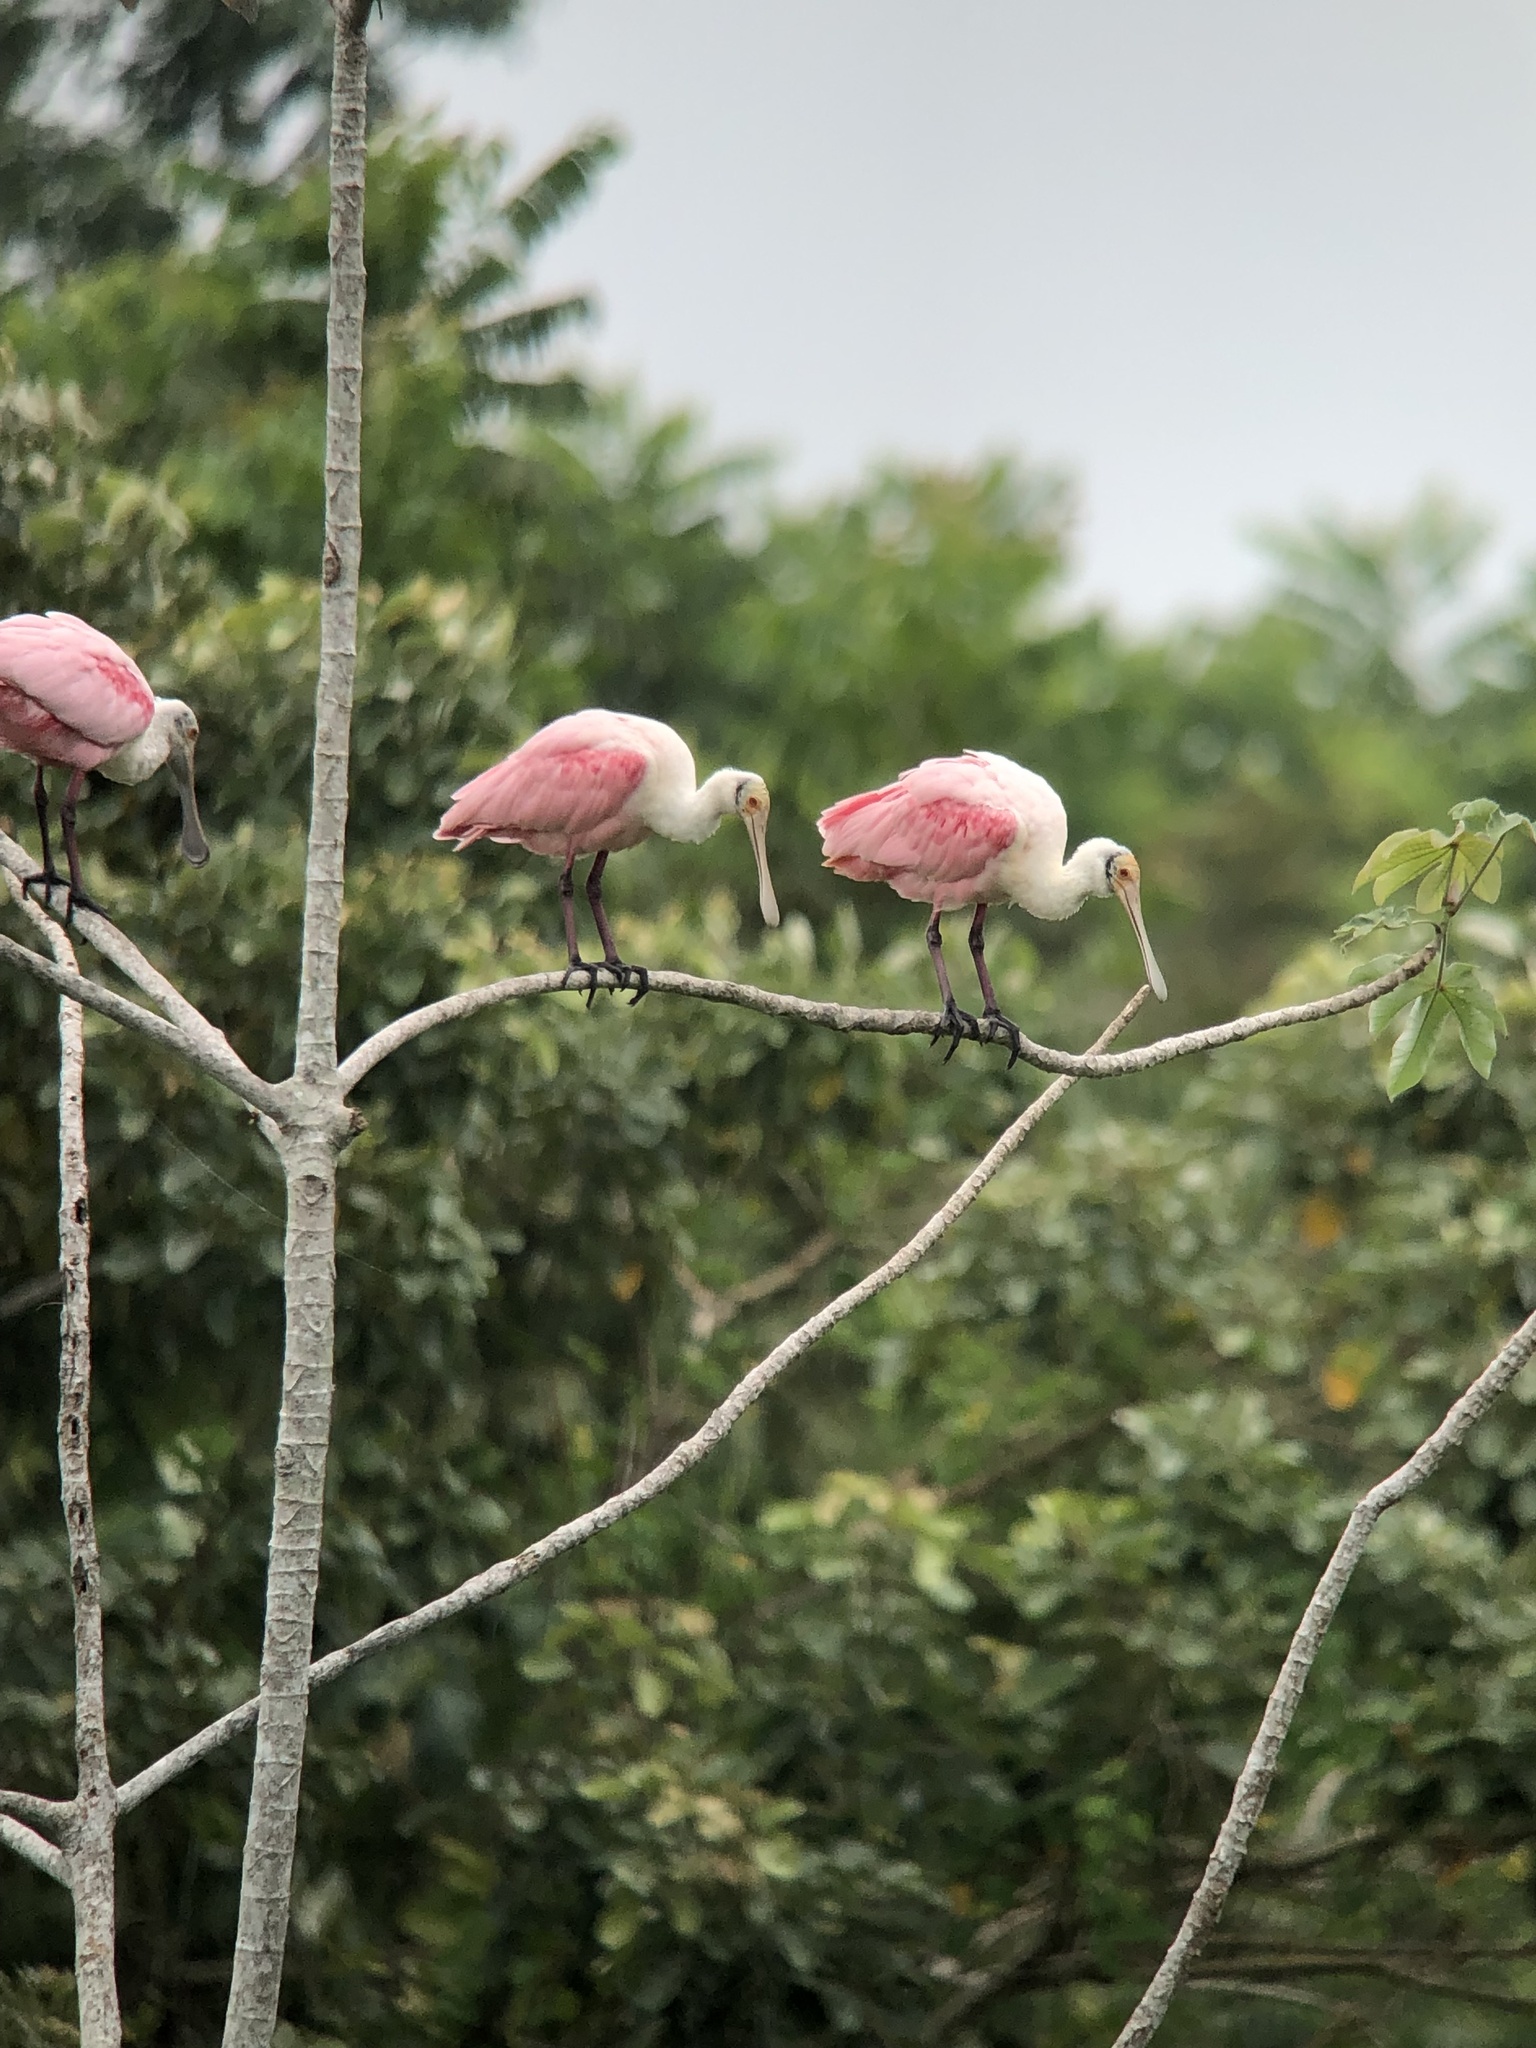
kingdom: Animalia
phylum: Chordata
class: Aves
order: Pelecaniformes
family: Threskiornithidae
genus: Platalea
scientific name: Platalea ajaja
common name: Roseate spoonbill
